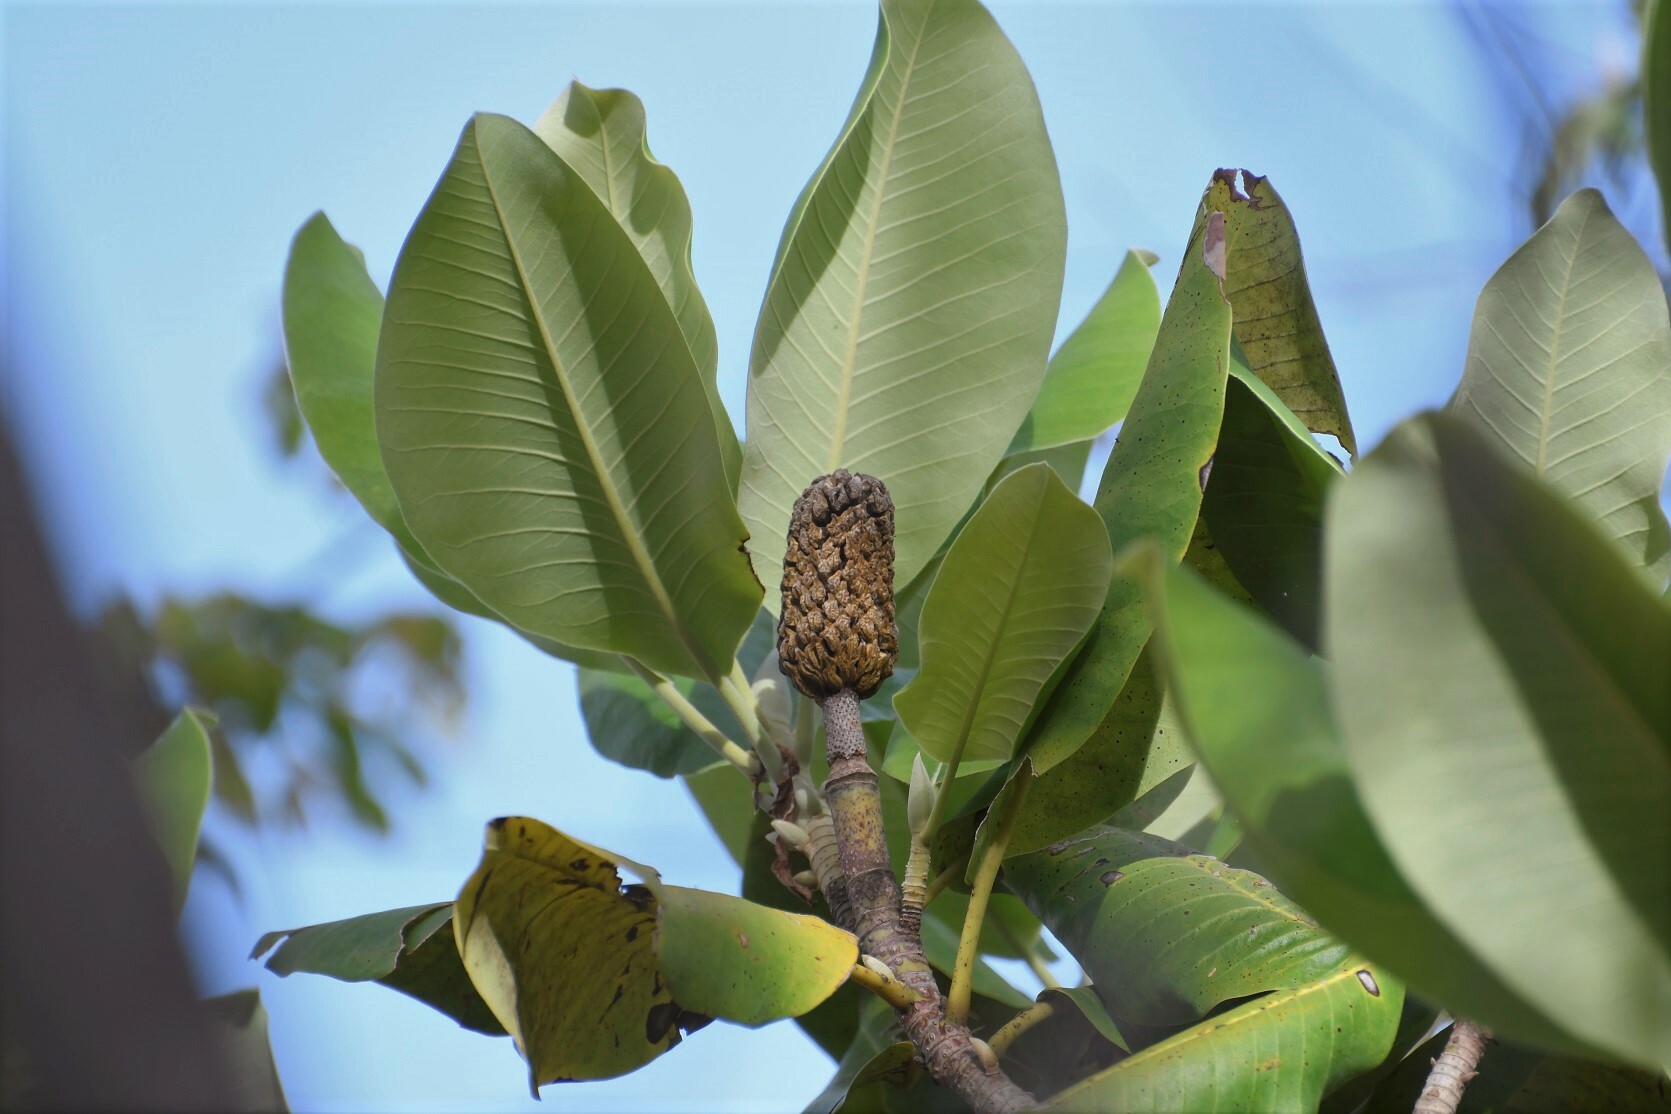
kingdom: Plantae
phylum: Tracheophyta
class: Magnoliopsida
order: Magnoliales
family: Magnoliaceae
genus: Magnolia
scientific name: Magnolia sharpii
